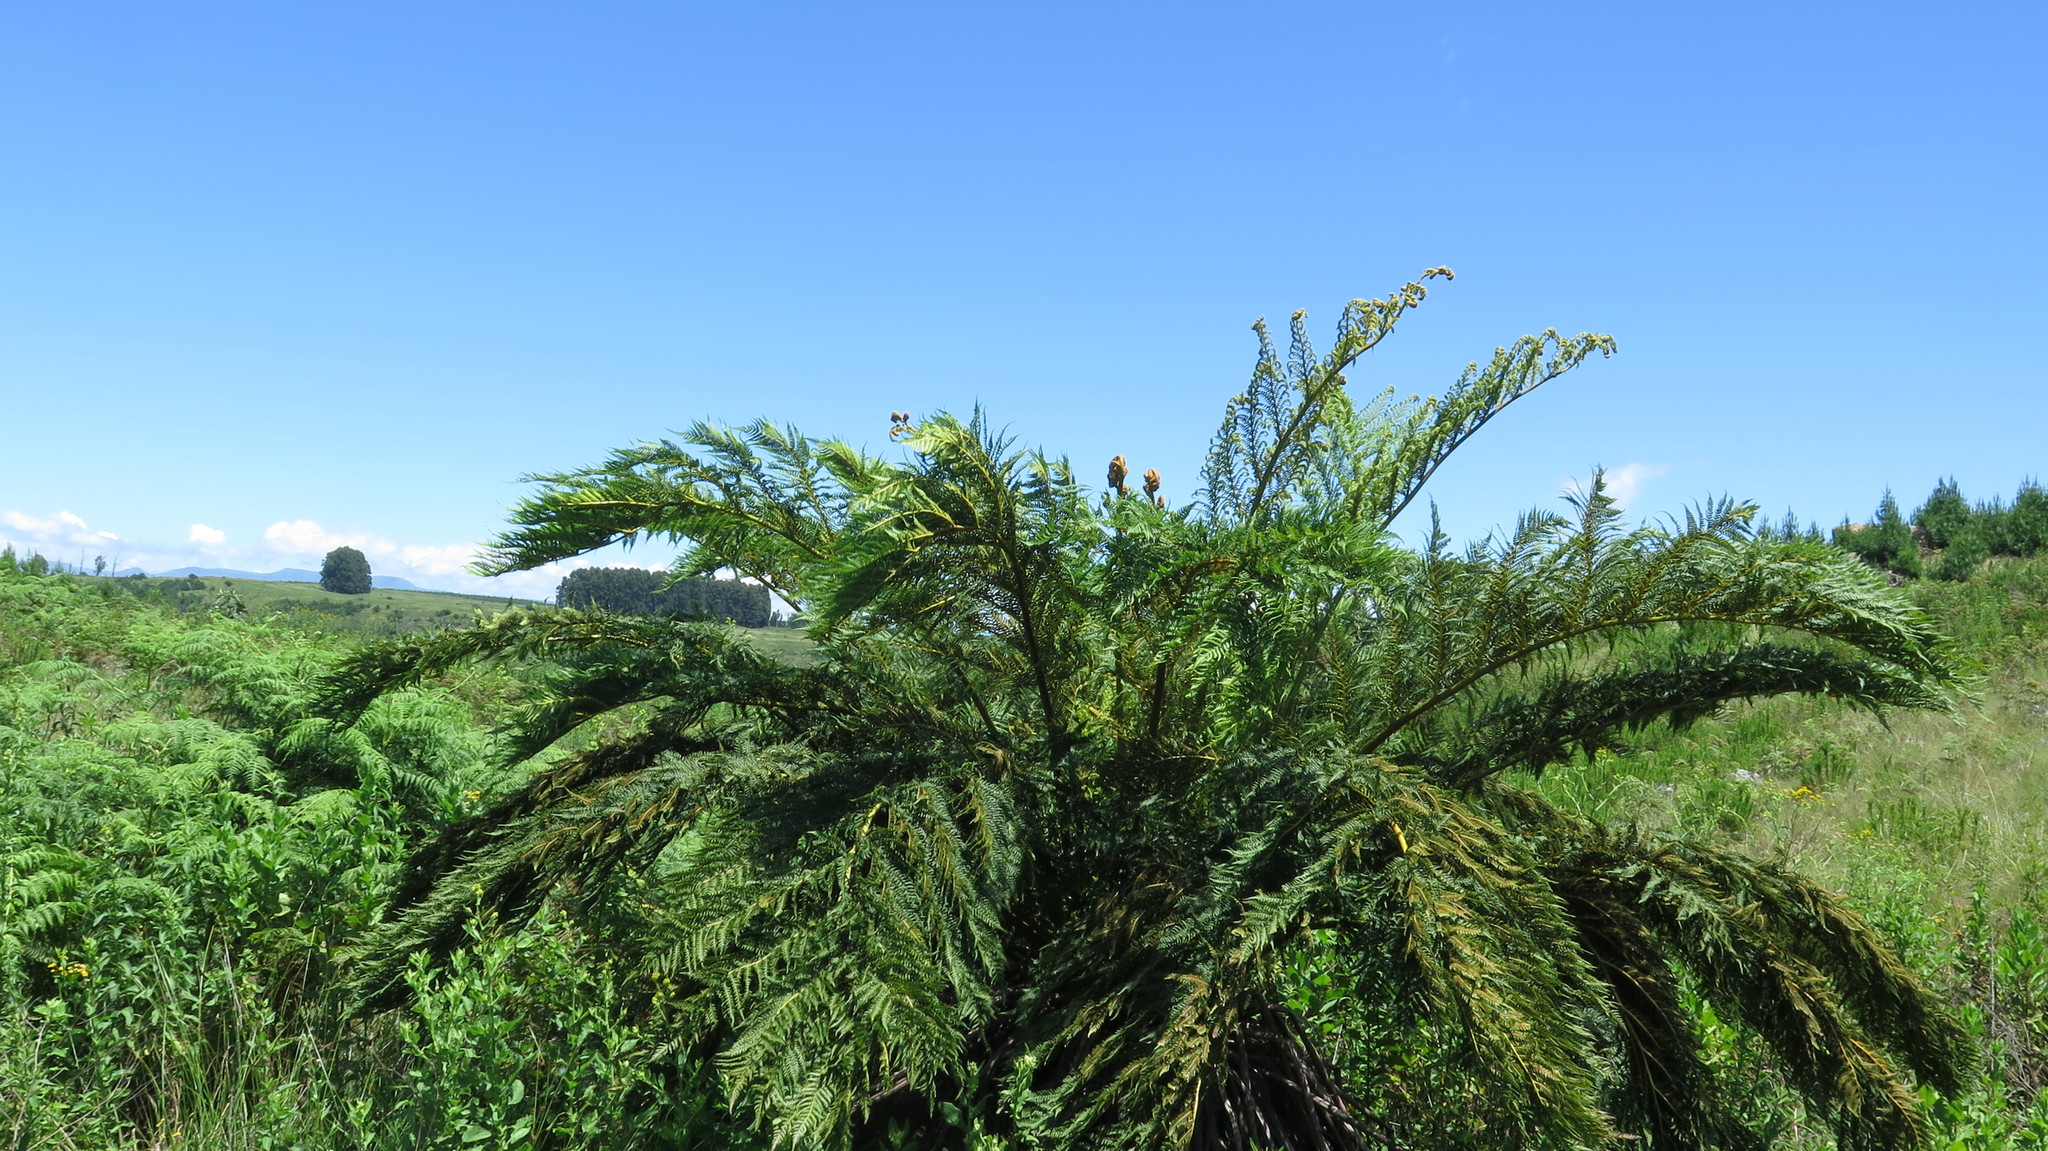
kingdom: Plantae
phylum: Tracheophyta
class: Polypodiopsida
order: Cyatheales
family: Cyatheaceae
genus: Alsophila
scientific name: Alsophila dregei
